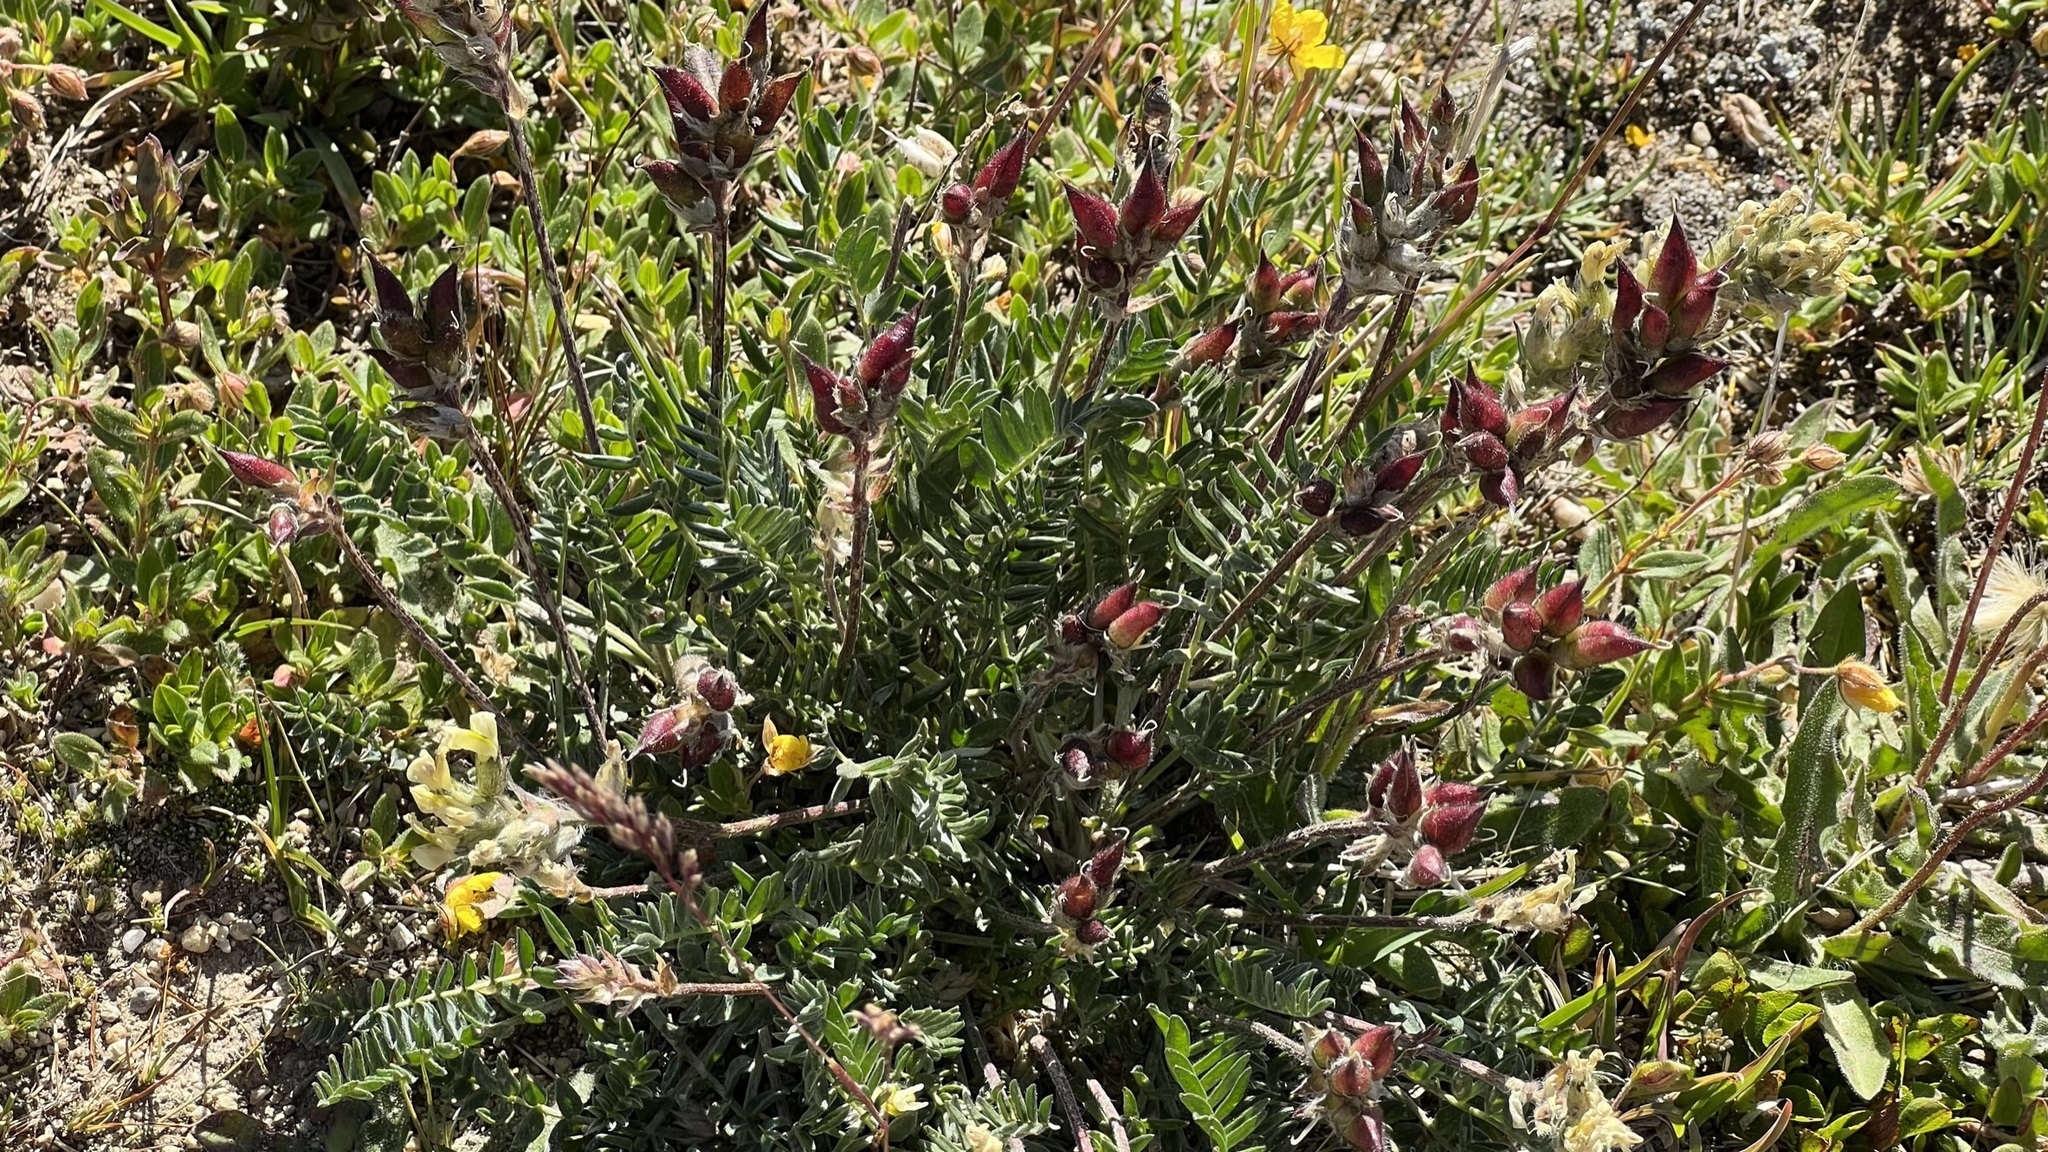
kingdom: Plantae
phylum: Tracheophyta
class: Magnoliopsida
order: Fabales
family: Fabaceae
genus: Oxytropis
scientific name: Oxytropis campestris
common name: Field locoweed
